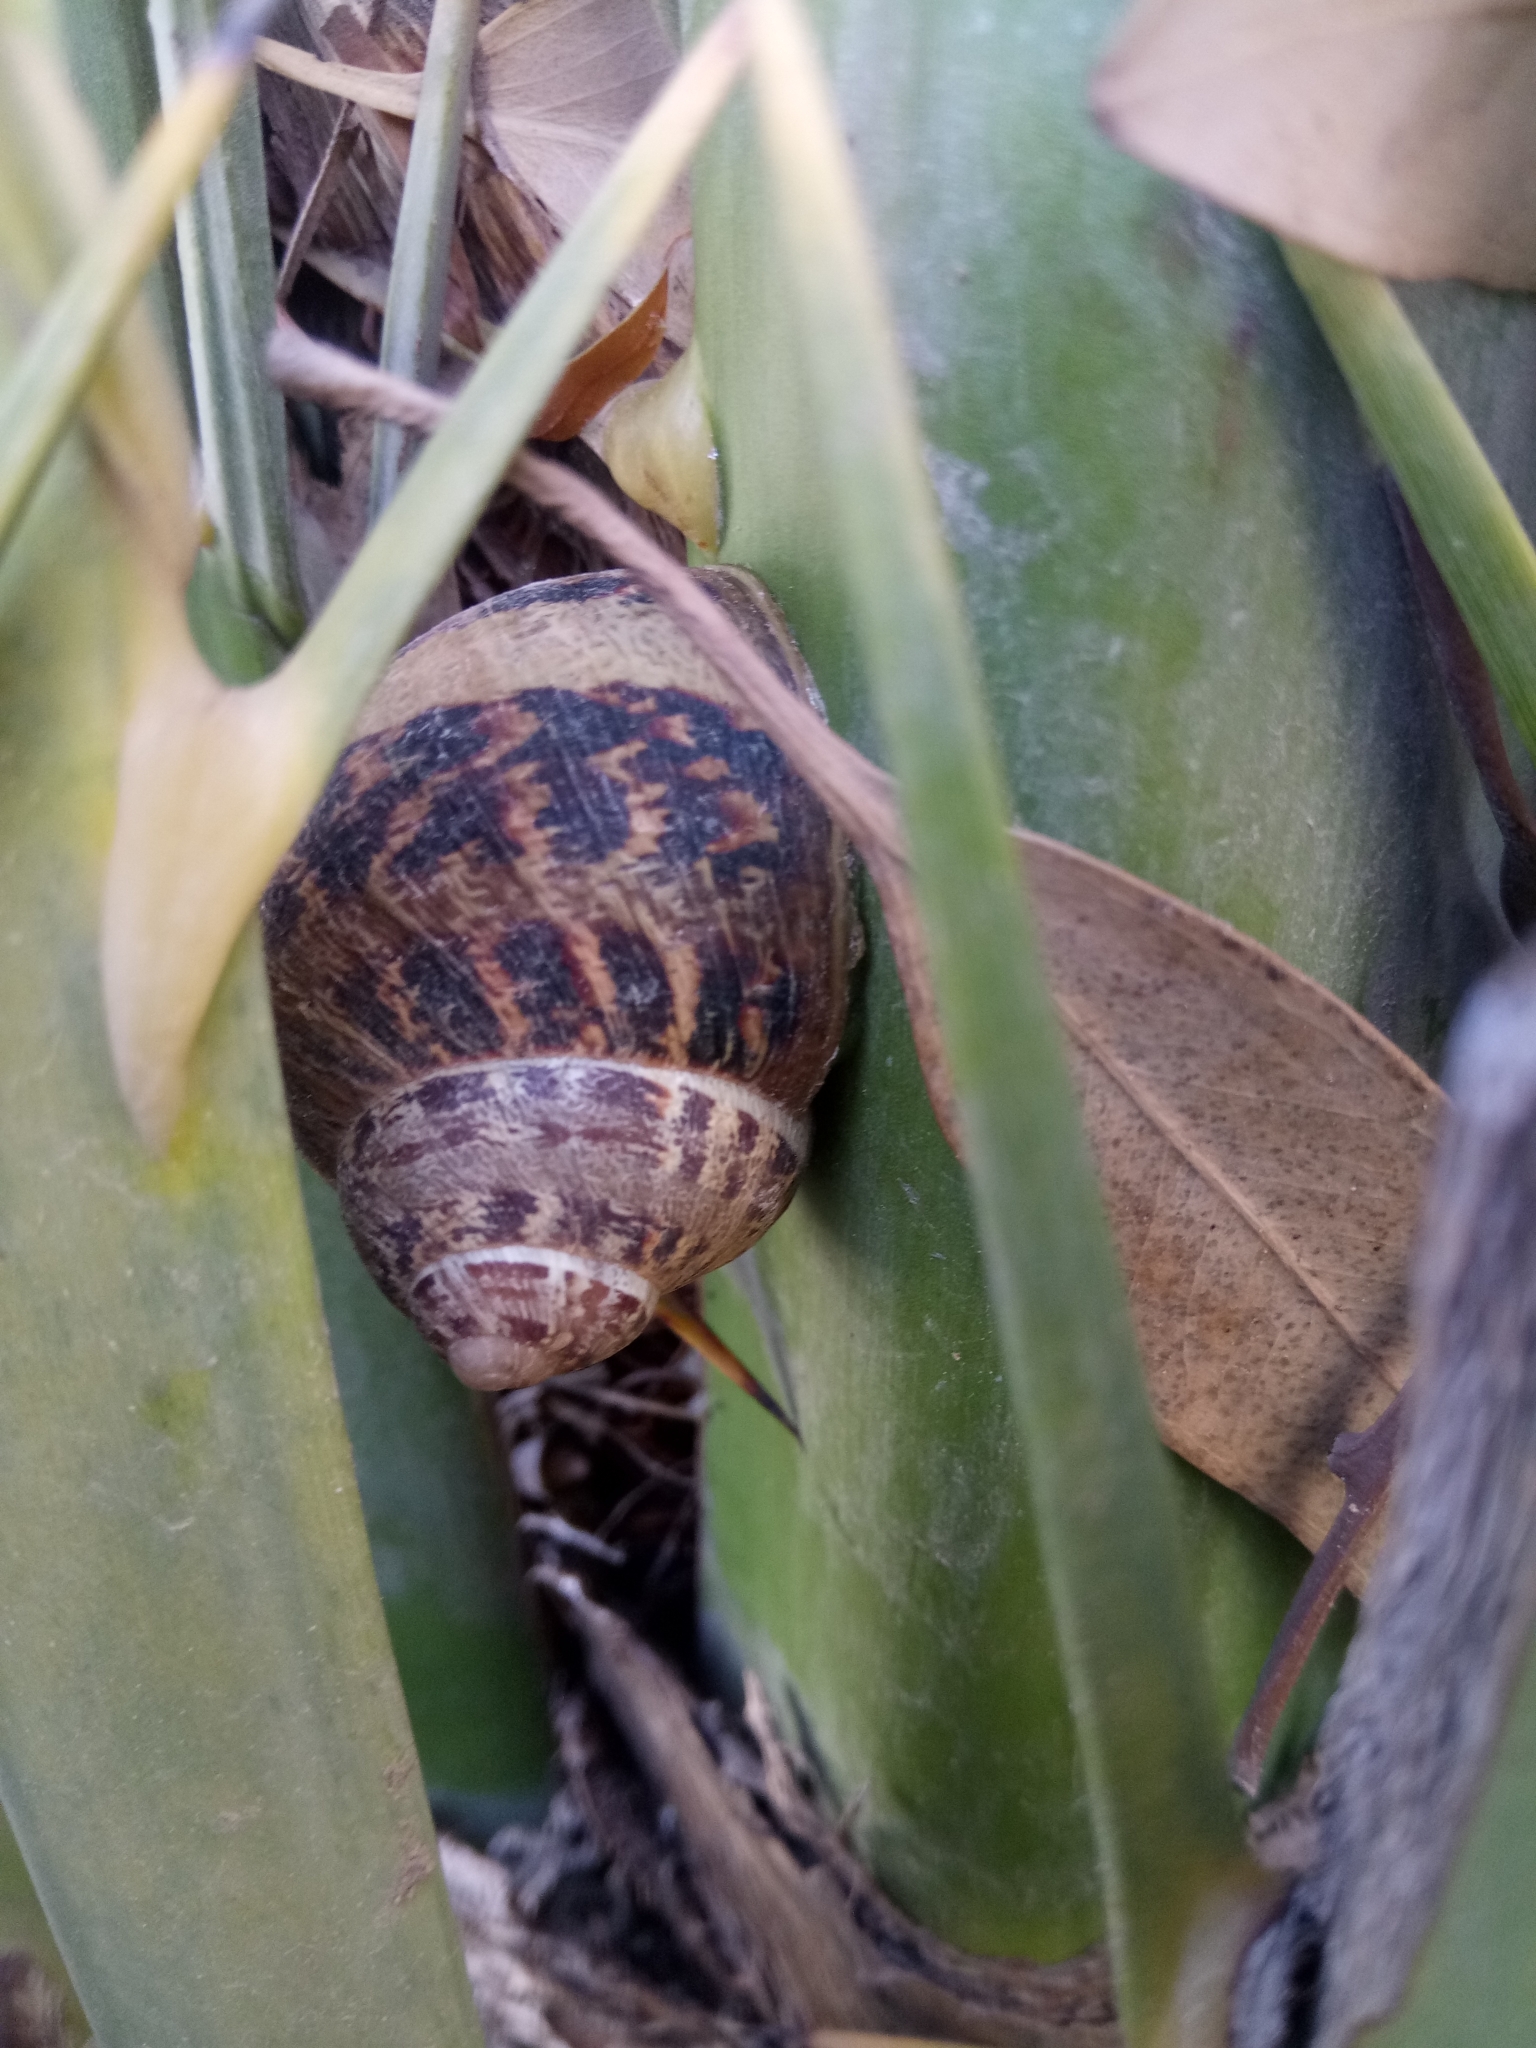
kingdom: Animalia
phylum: Mollusca
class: Gastropoda
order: Stylommatophora
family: Helicidae
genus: Cornu
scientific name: Cornu aspersum
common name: Brown garden snail
